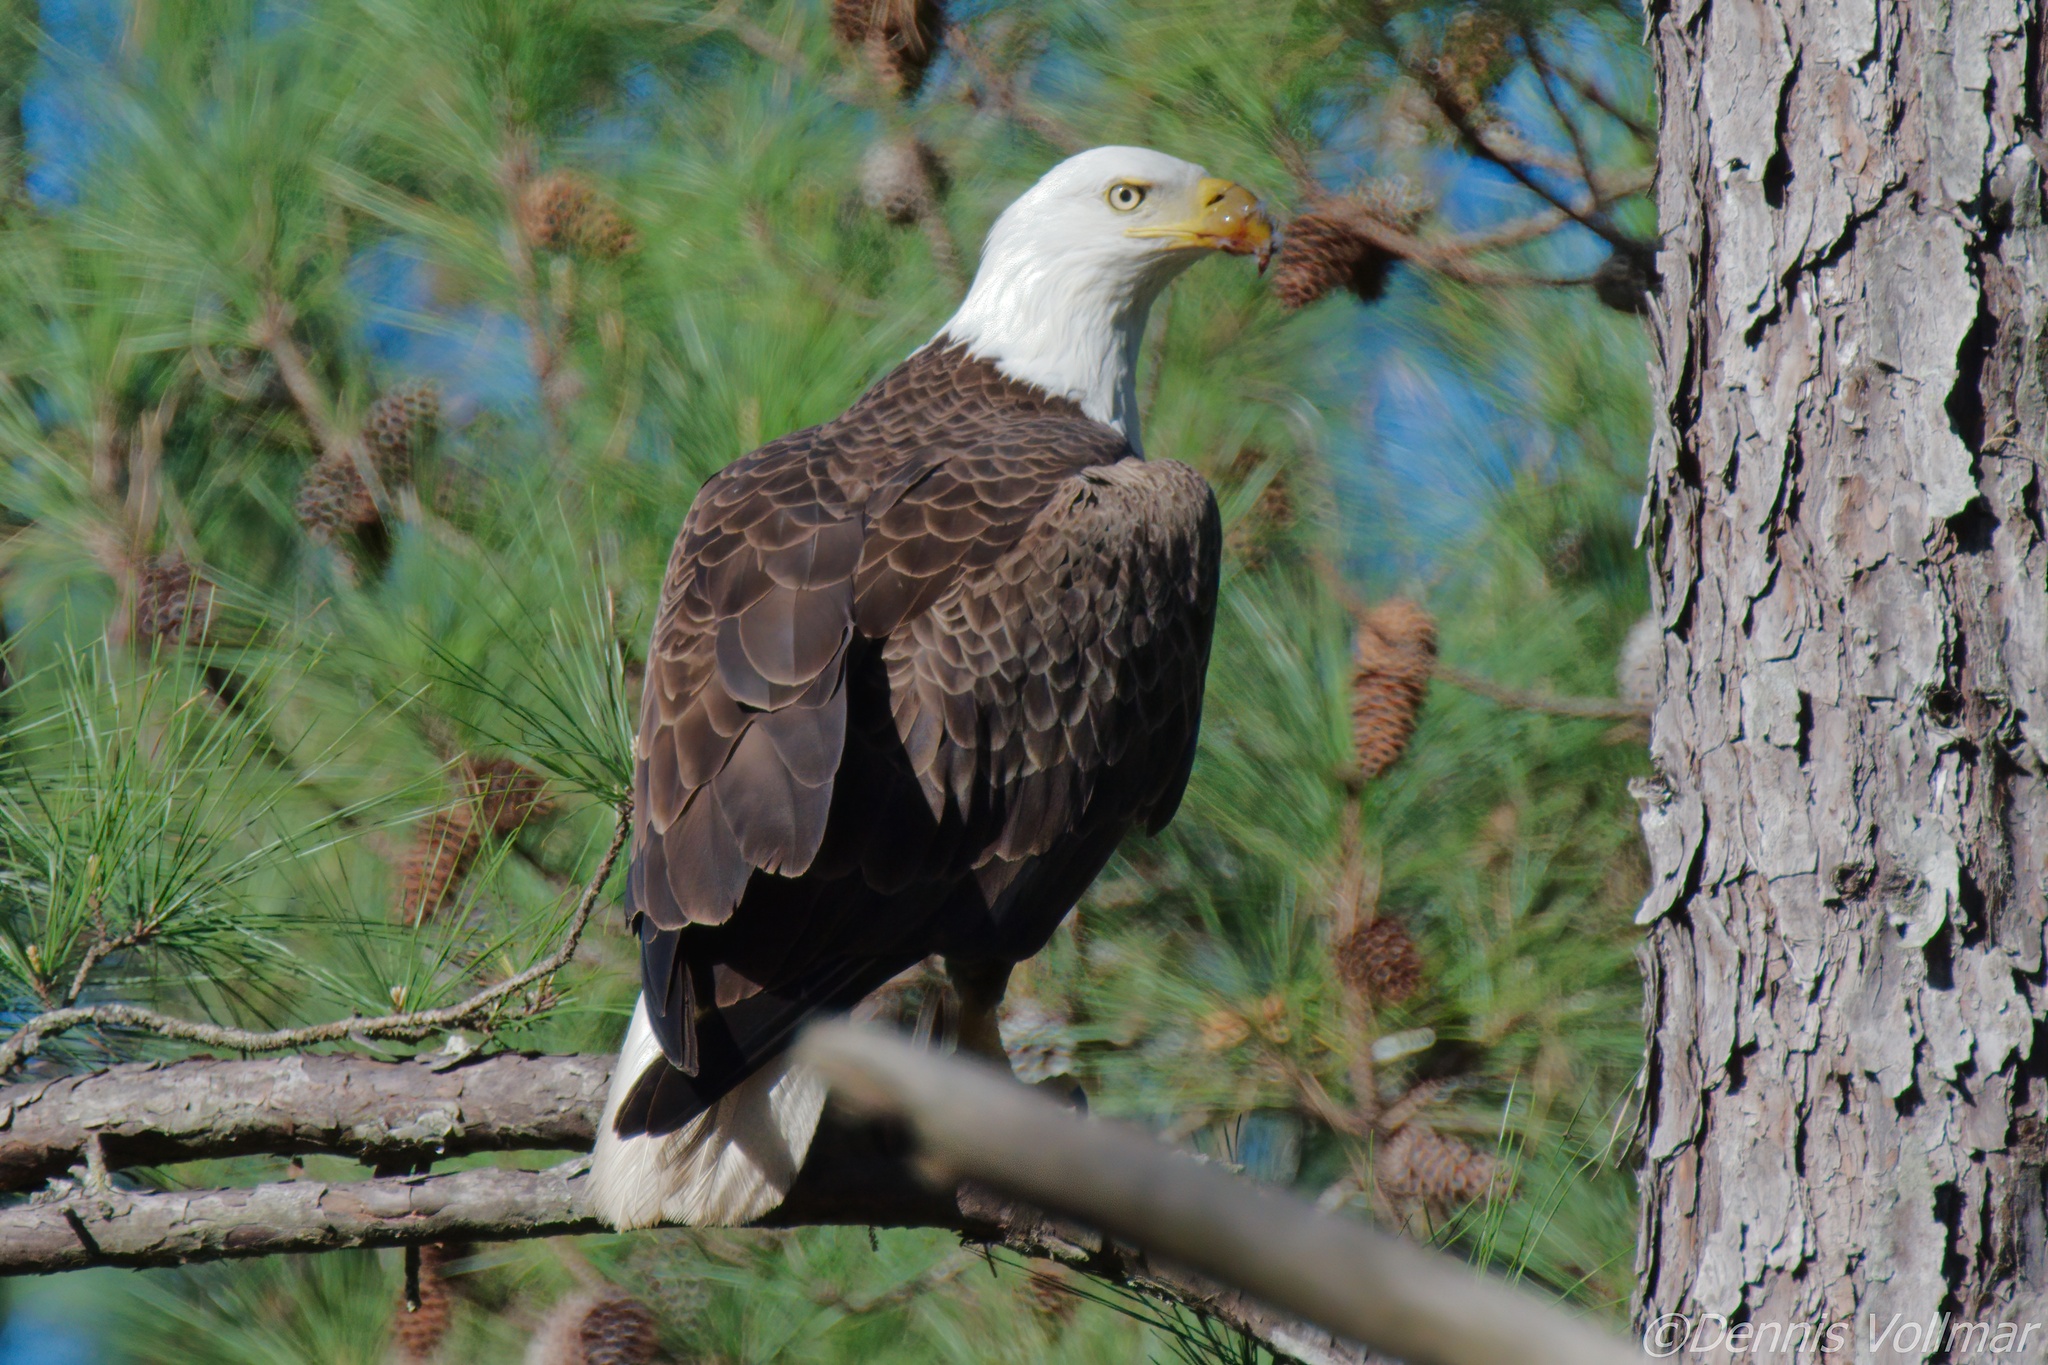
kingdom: Animalia
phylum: Chordata
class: Aves
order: Accipitriformes
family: Accipitridae
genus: Haliaeetus
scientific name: Haliaeetus leucocephalus
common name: Bald eagle
